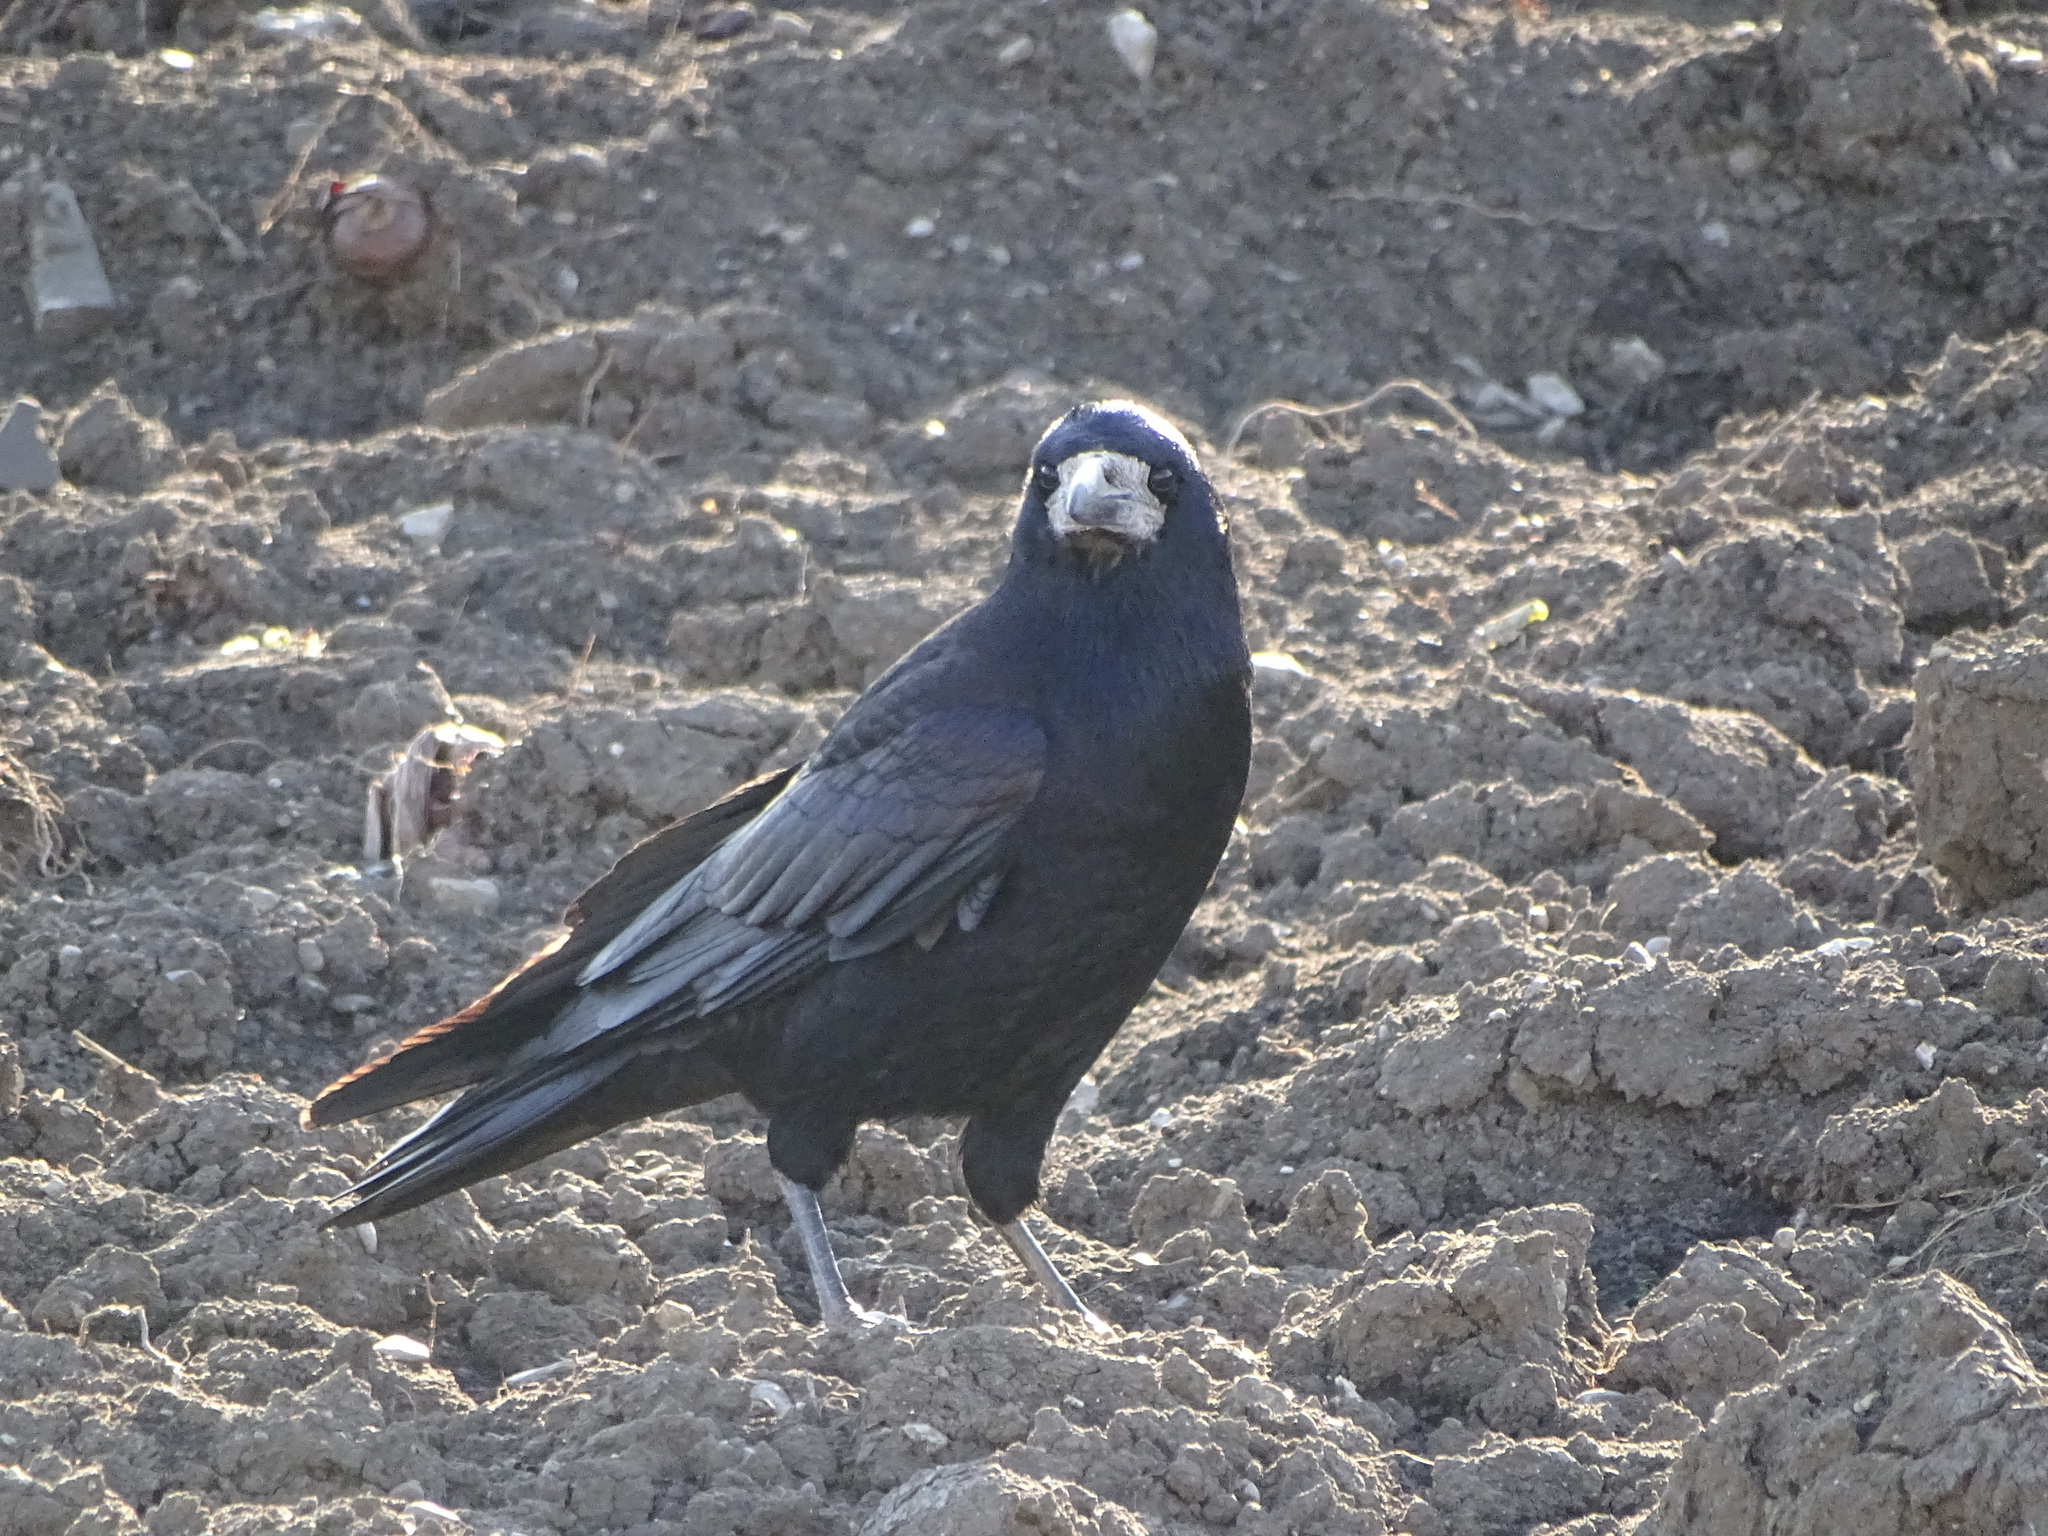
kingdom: Animalia
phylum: Chordata
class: Aves
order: Passeriformes
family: Corvidae
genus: Corvus
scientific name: Corvus frugilegus
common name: Rook
